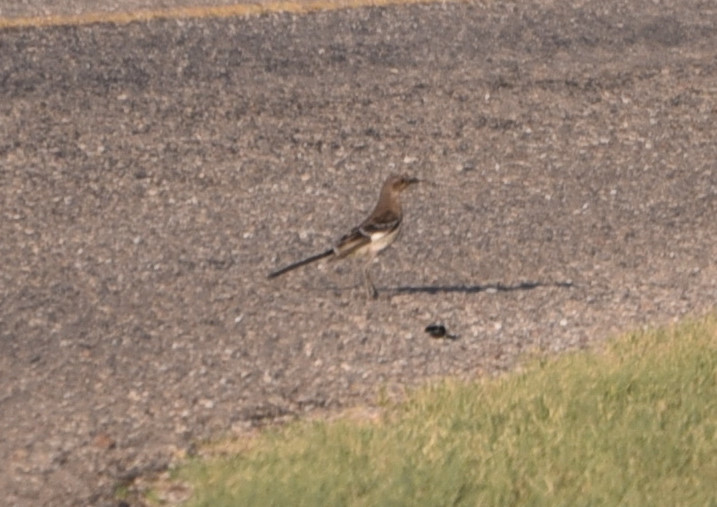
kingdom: Animalia
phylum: Chordata
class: Aves
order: Passeriformes
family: Mimidae
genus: Mimus
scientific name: Mimus polyglottos
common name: Northern mockingbird
